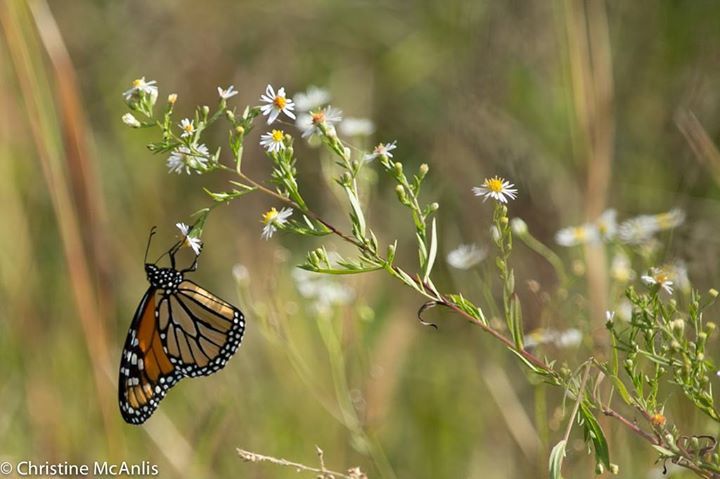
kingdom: Animalia
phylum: Arthropoda
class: Insecta
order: Lepidoptera
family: Nymphalidae
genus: Danaus
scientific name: Danaus plexippus
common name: Monarch
